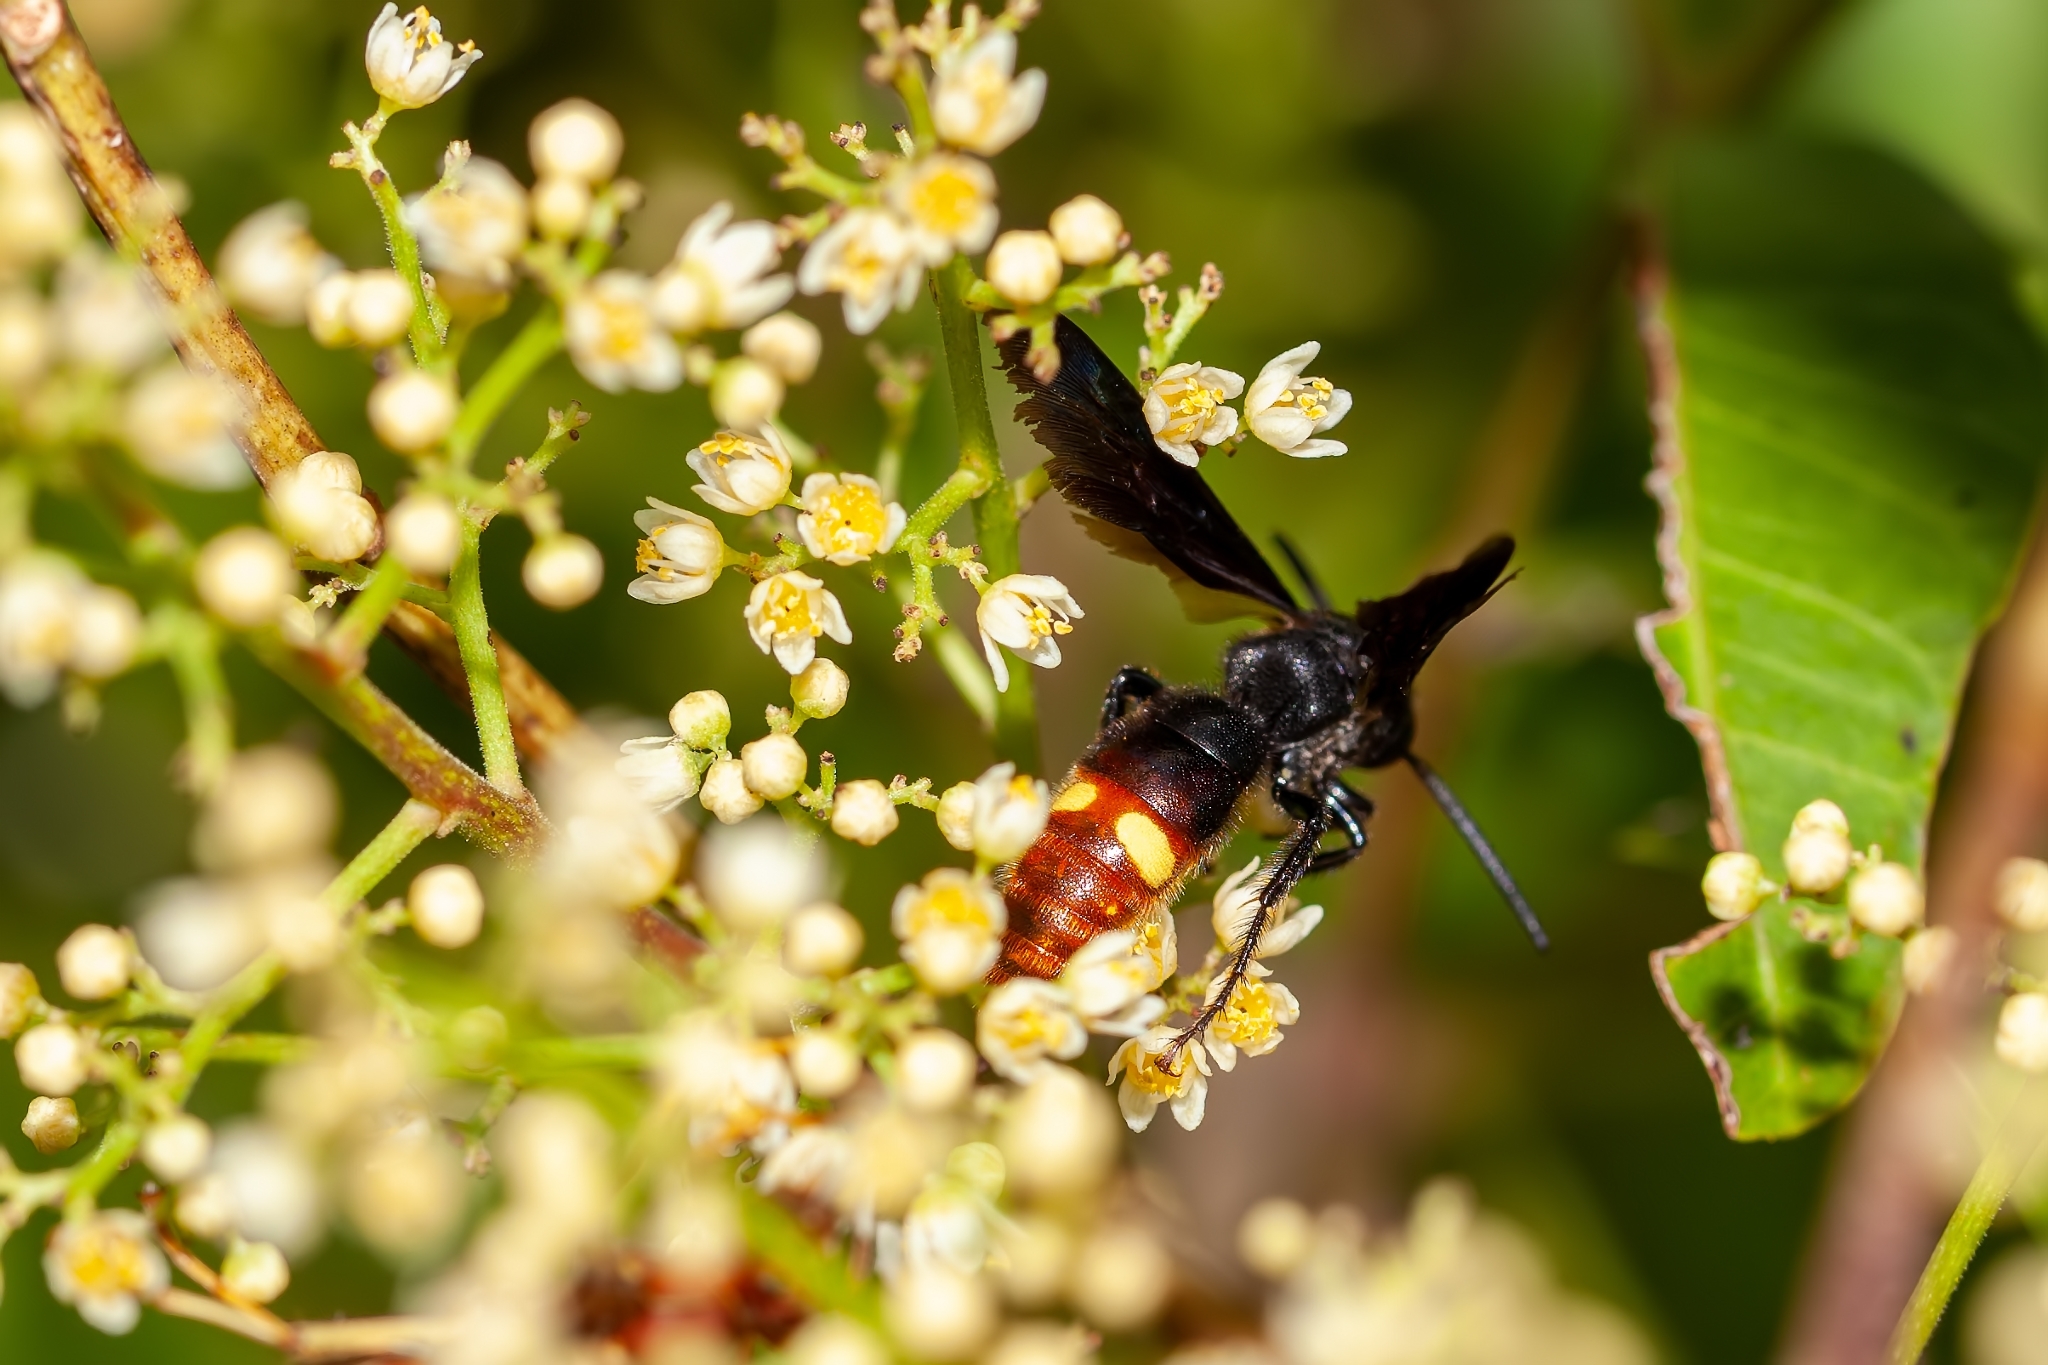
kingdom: Animalia
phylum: Arthropoda
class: Insecta
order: Hymenoptera
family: Scoliidae
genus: Scolia
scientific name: Scolia dubia
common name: Blue-winged scoliid wasp
